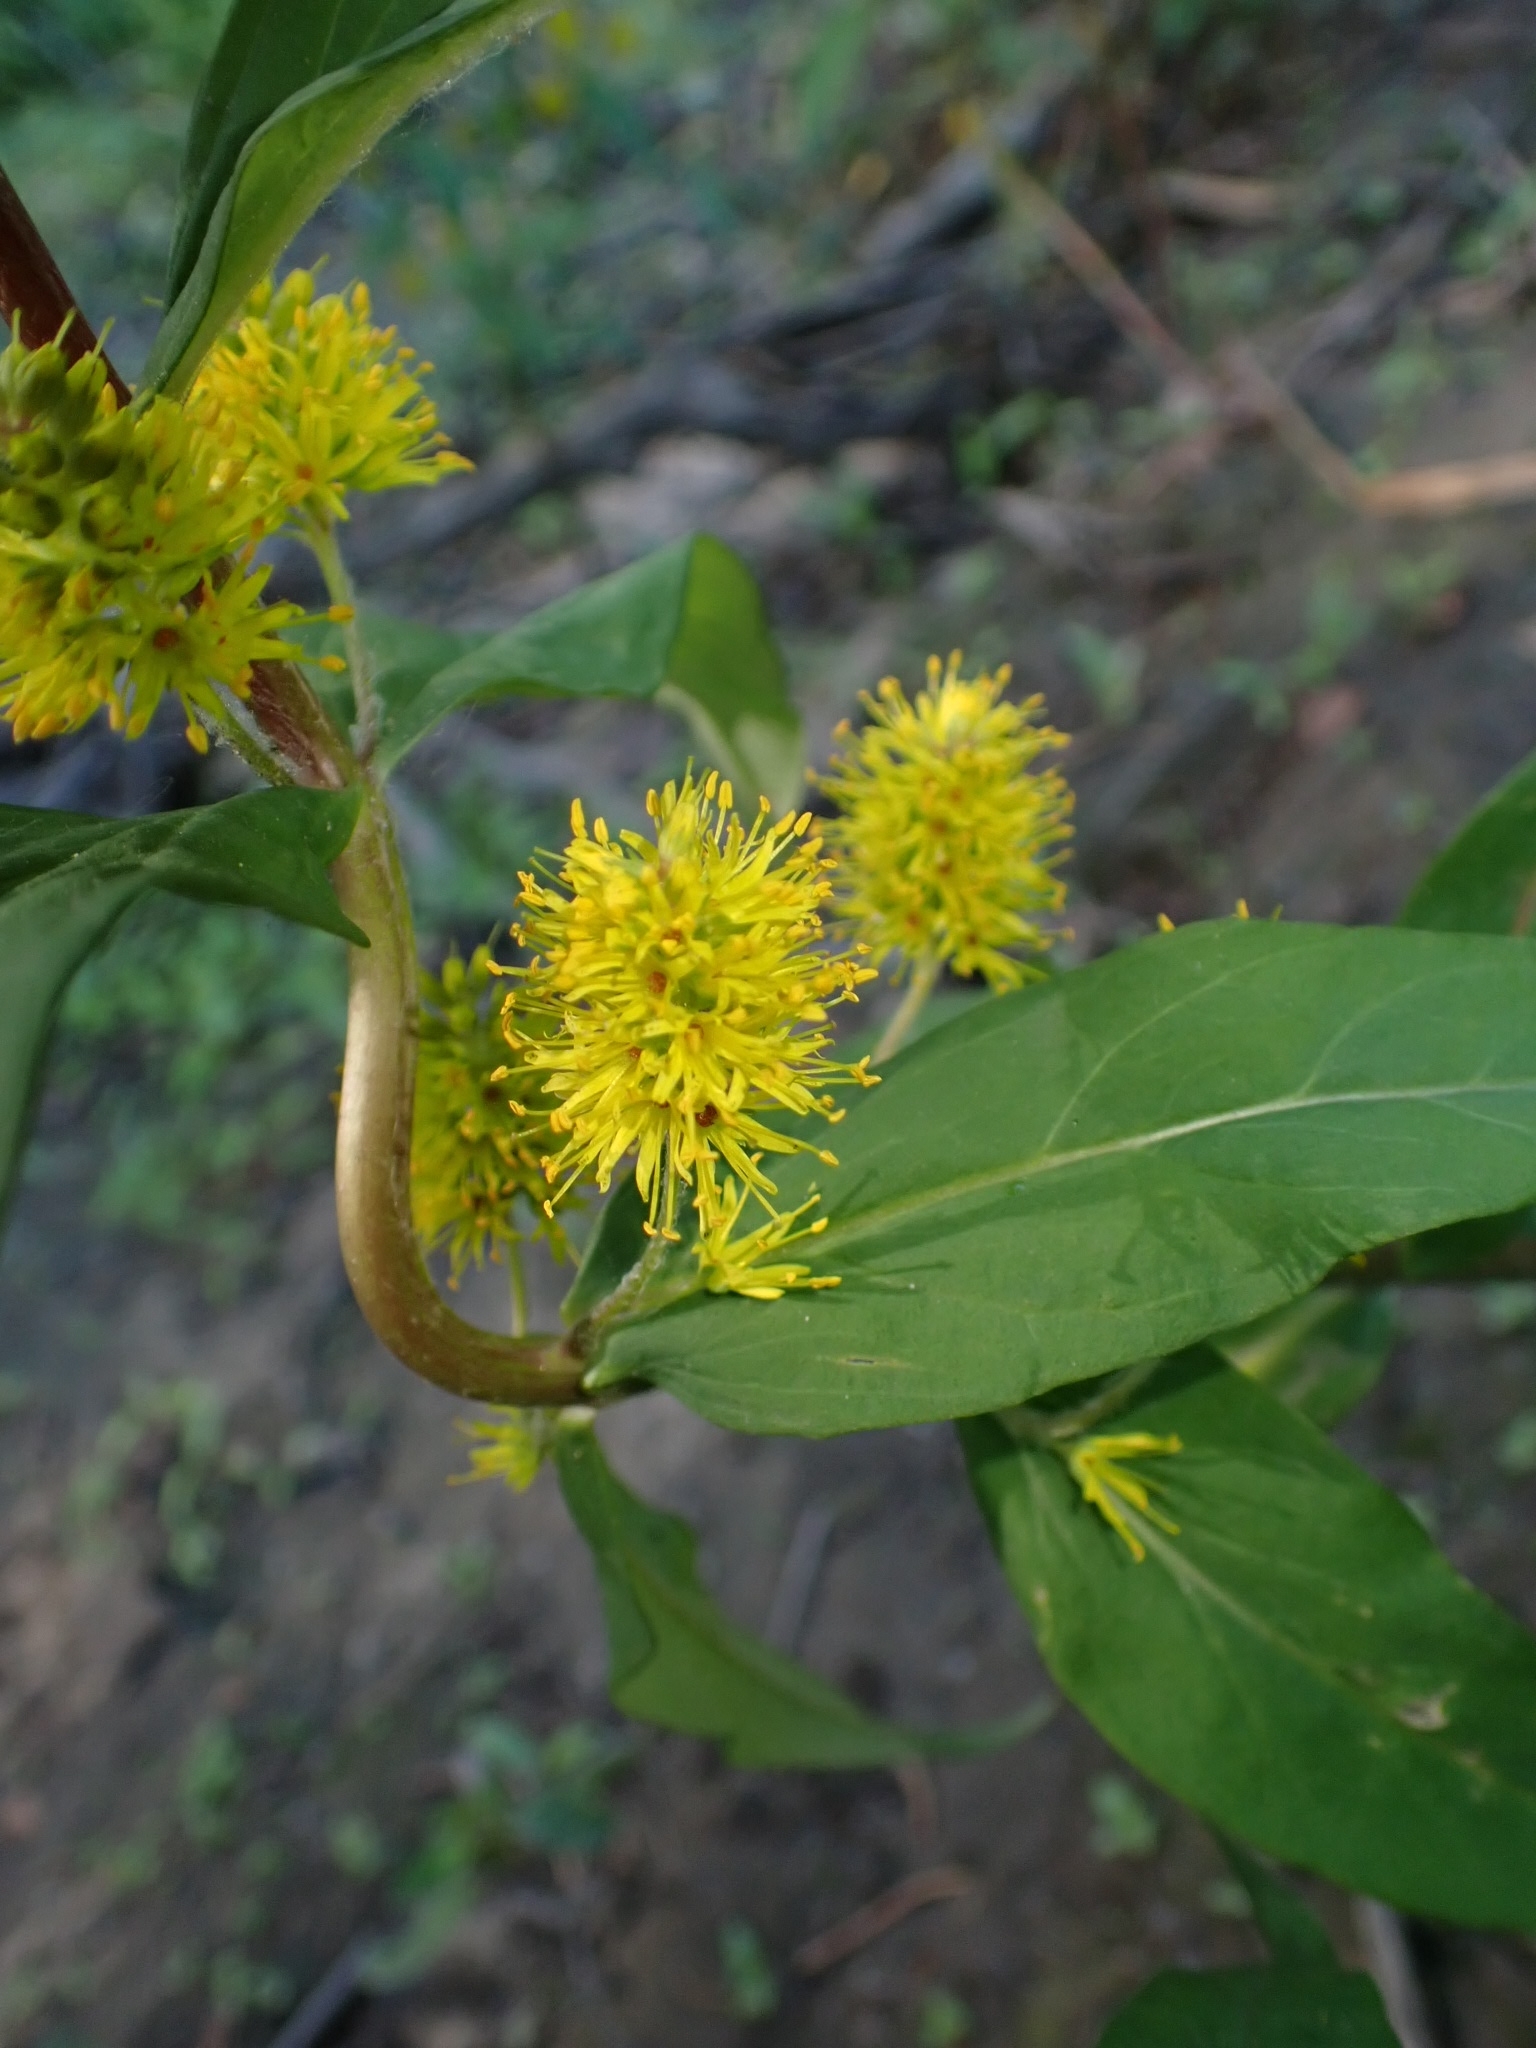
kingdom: Plantae
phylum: Tracheophyta
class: Magnoliopsida
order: Ericales
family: Primulaceae
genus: Lysimachia
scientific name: Lysimachia thyrsiflora
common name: Tufted loosestrife
